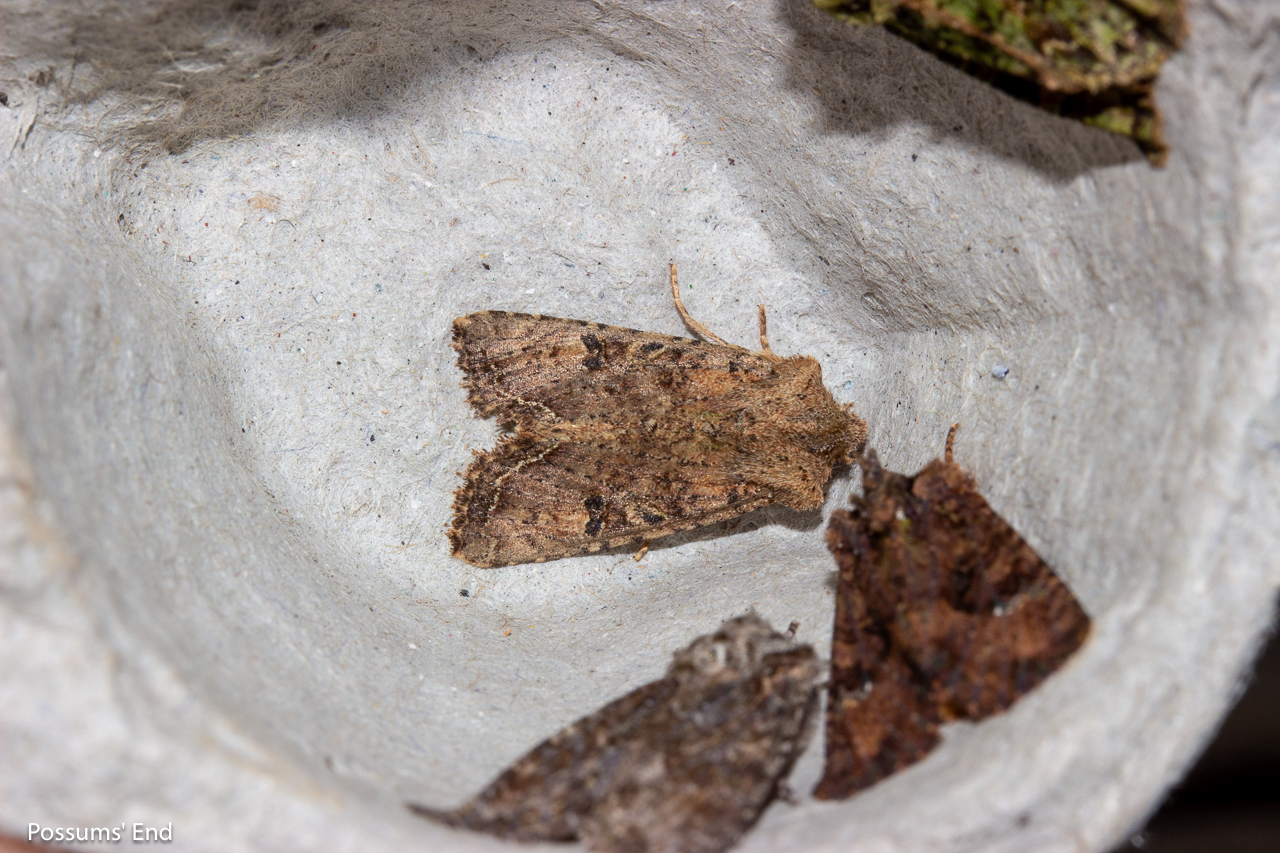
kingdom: Animalia
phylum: Arthropoda
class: Insecta
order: Lepidoptera
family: Noctuidae
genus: Meterana
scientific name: Meterana inchoata
